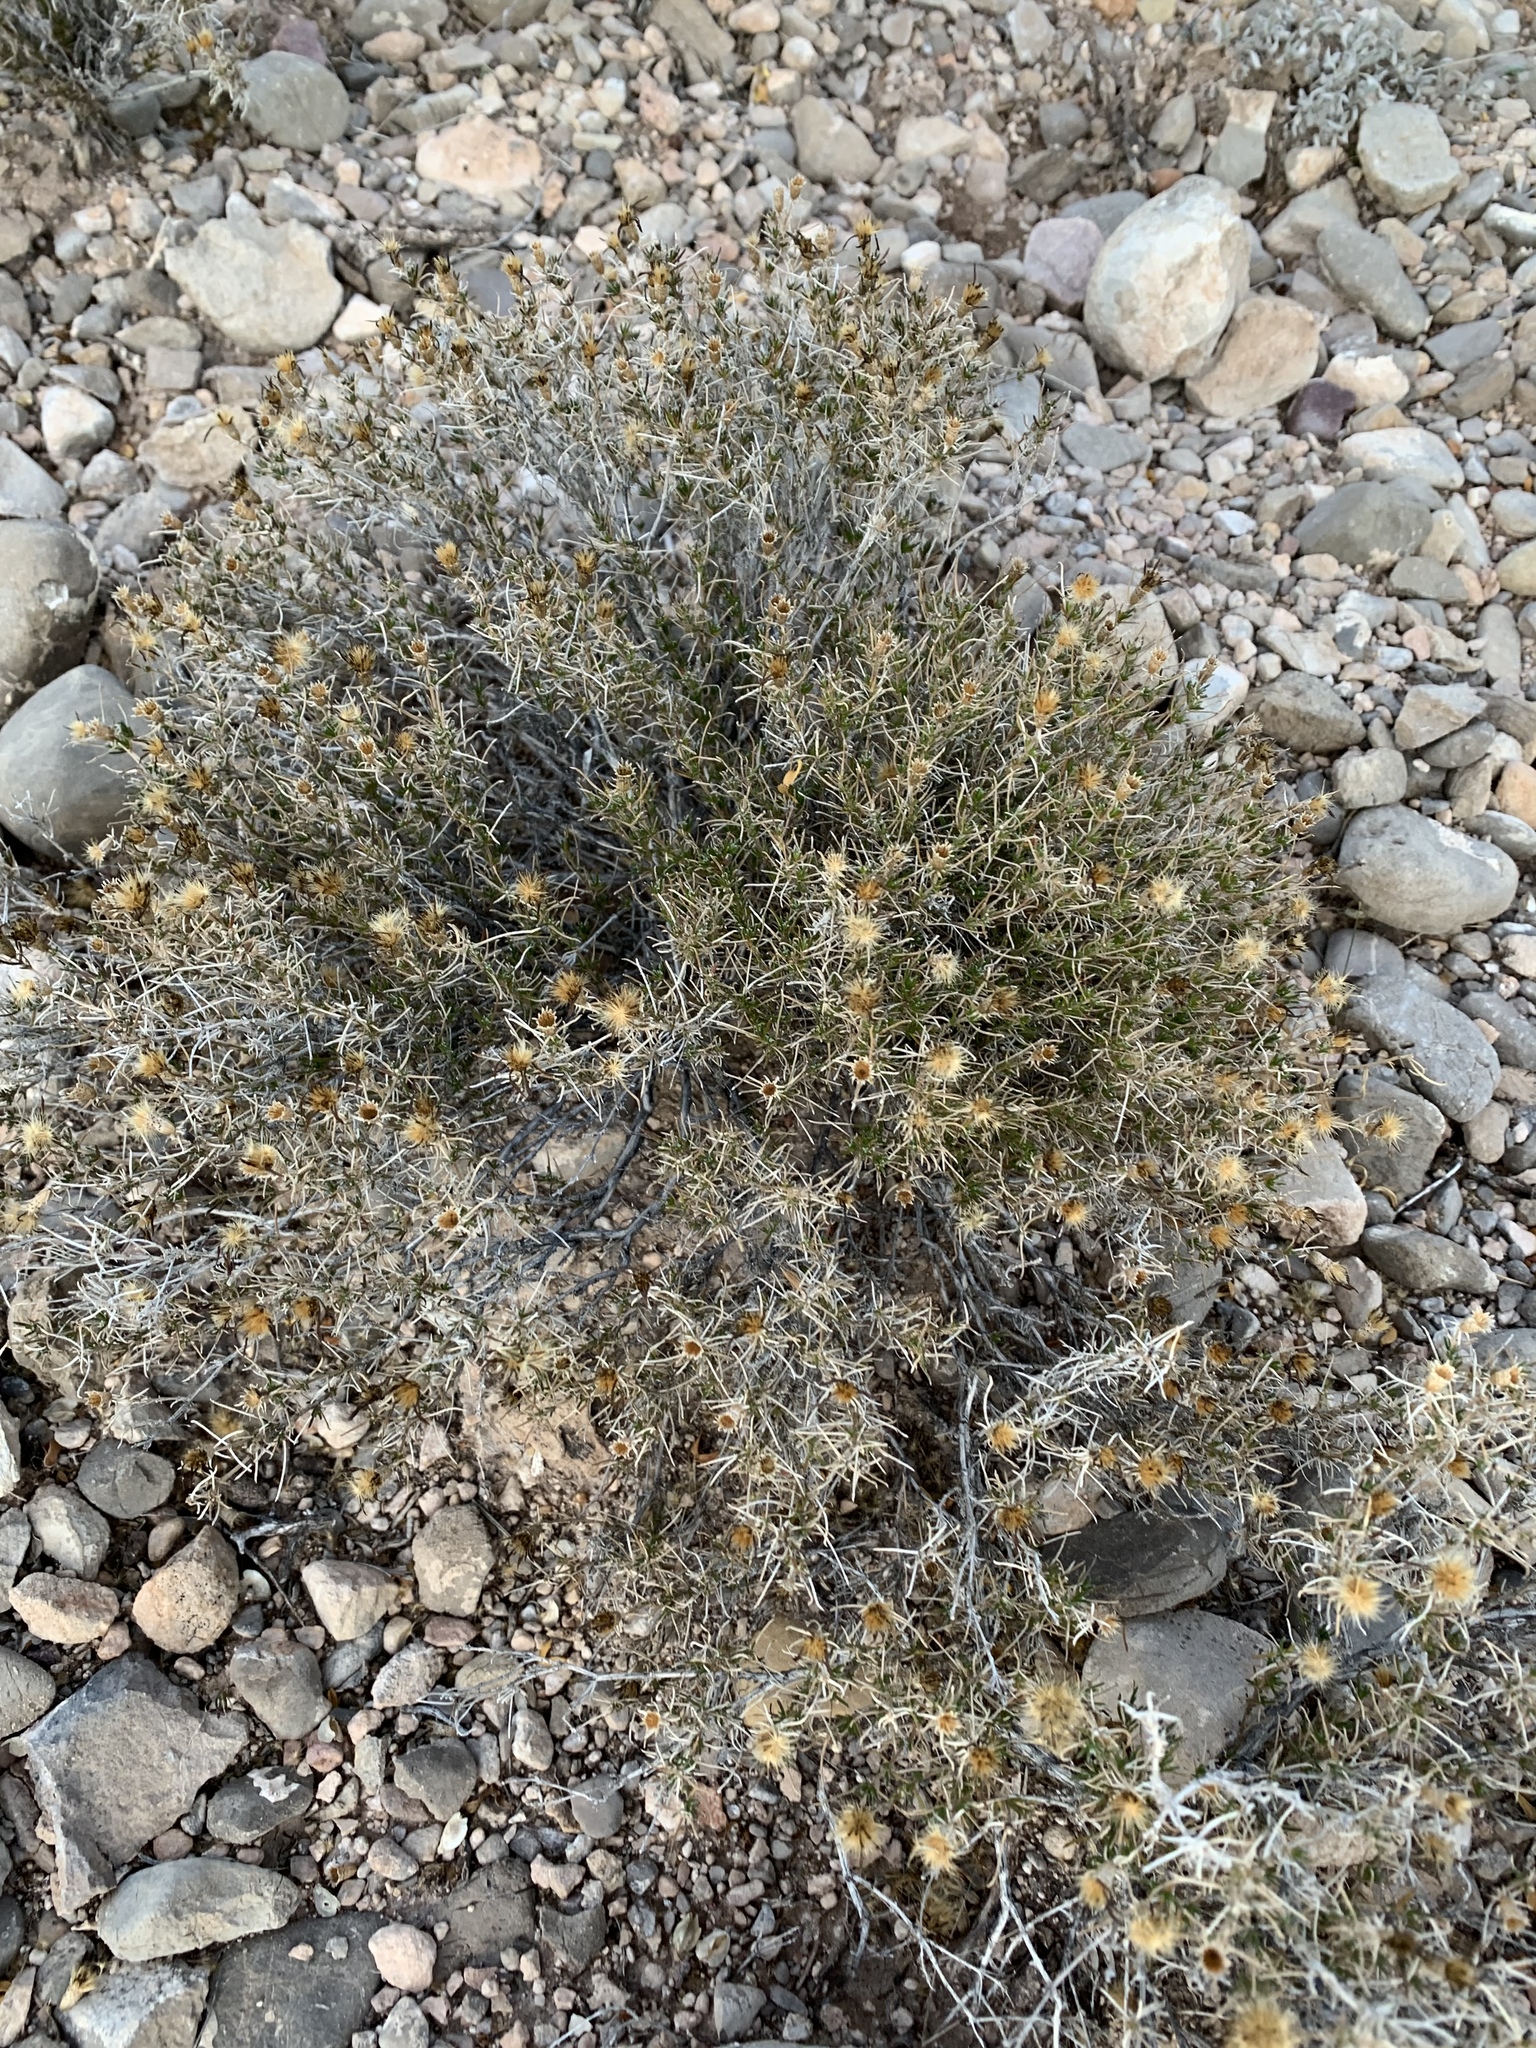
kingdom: Plantae
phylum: Tracheophyta
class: Magnoliopsida
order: Asterales
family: Asteraceae
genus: Thymophylla
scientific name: Thymophylla acerosa
